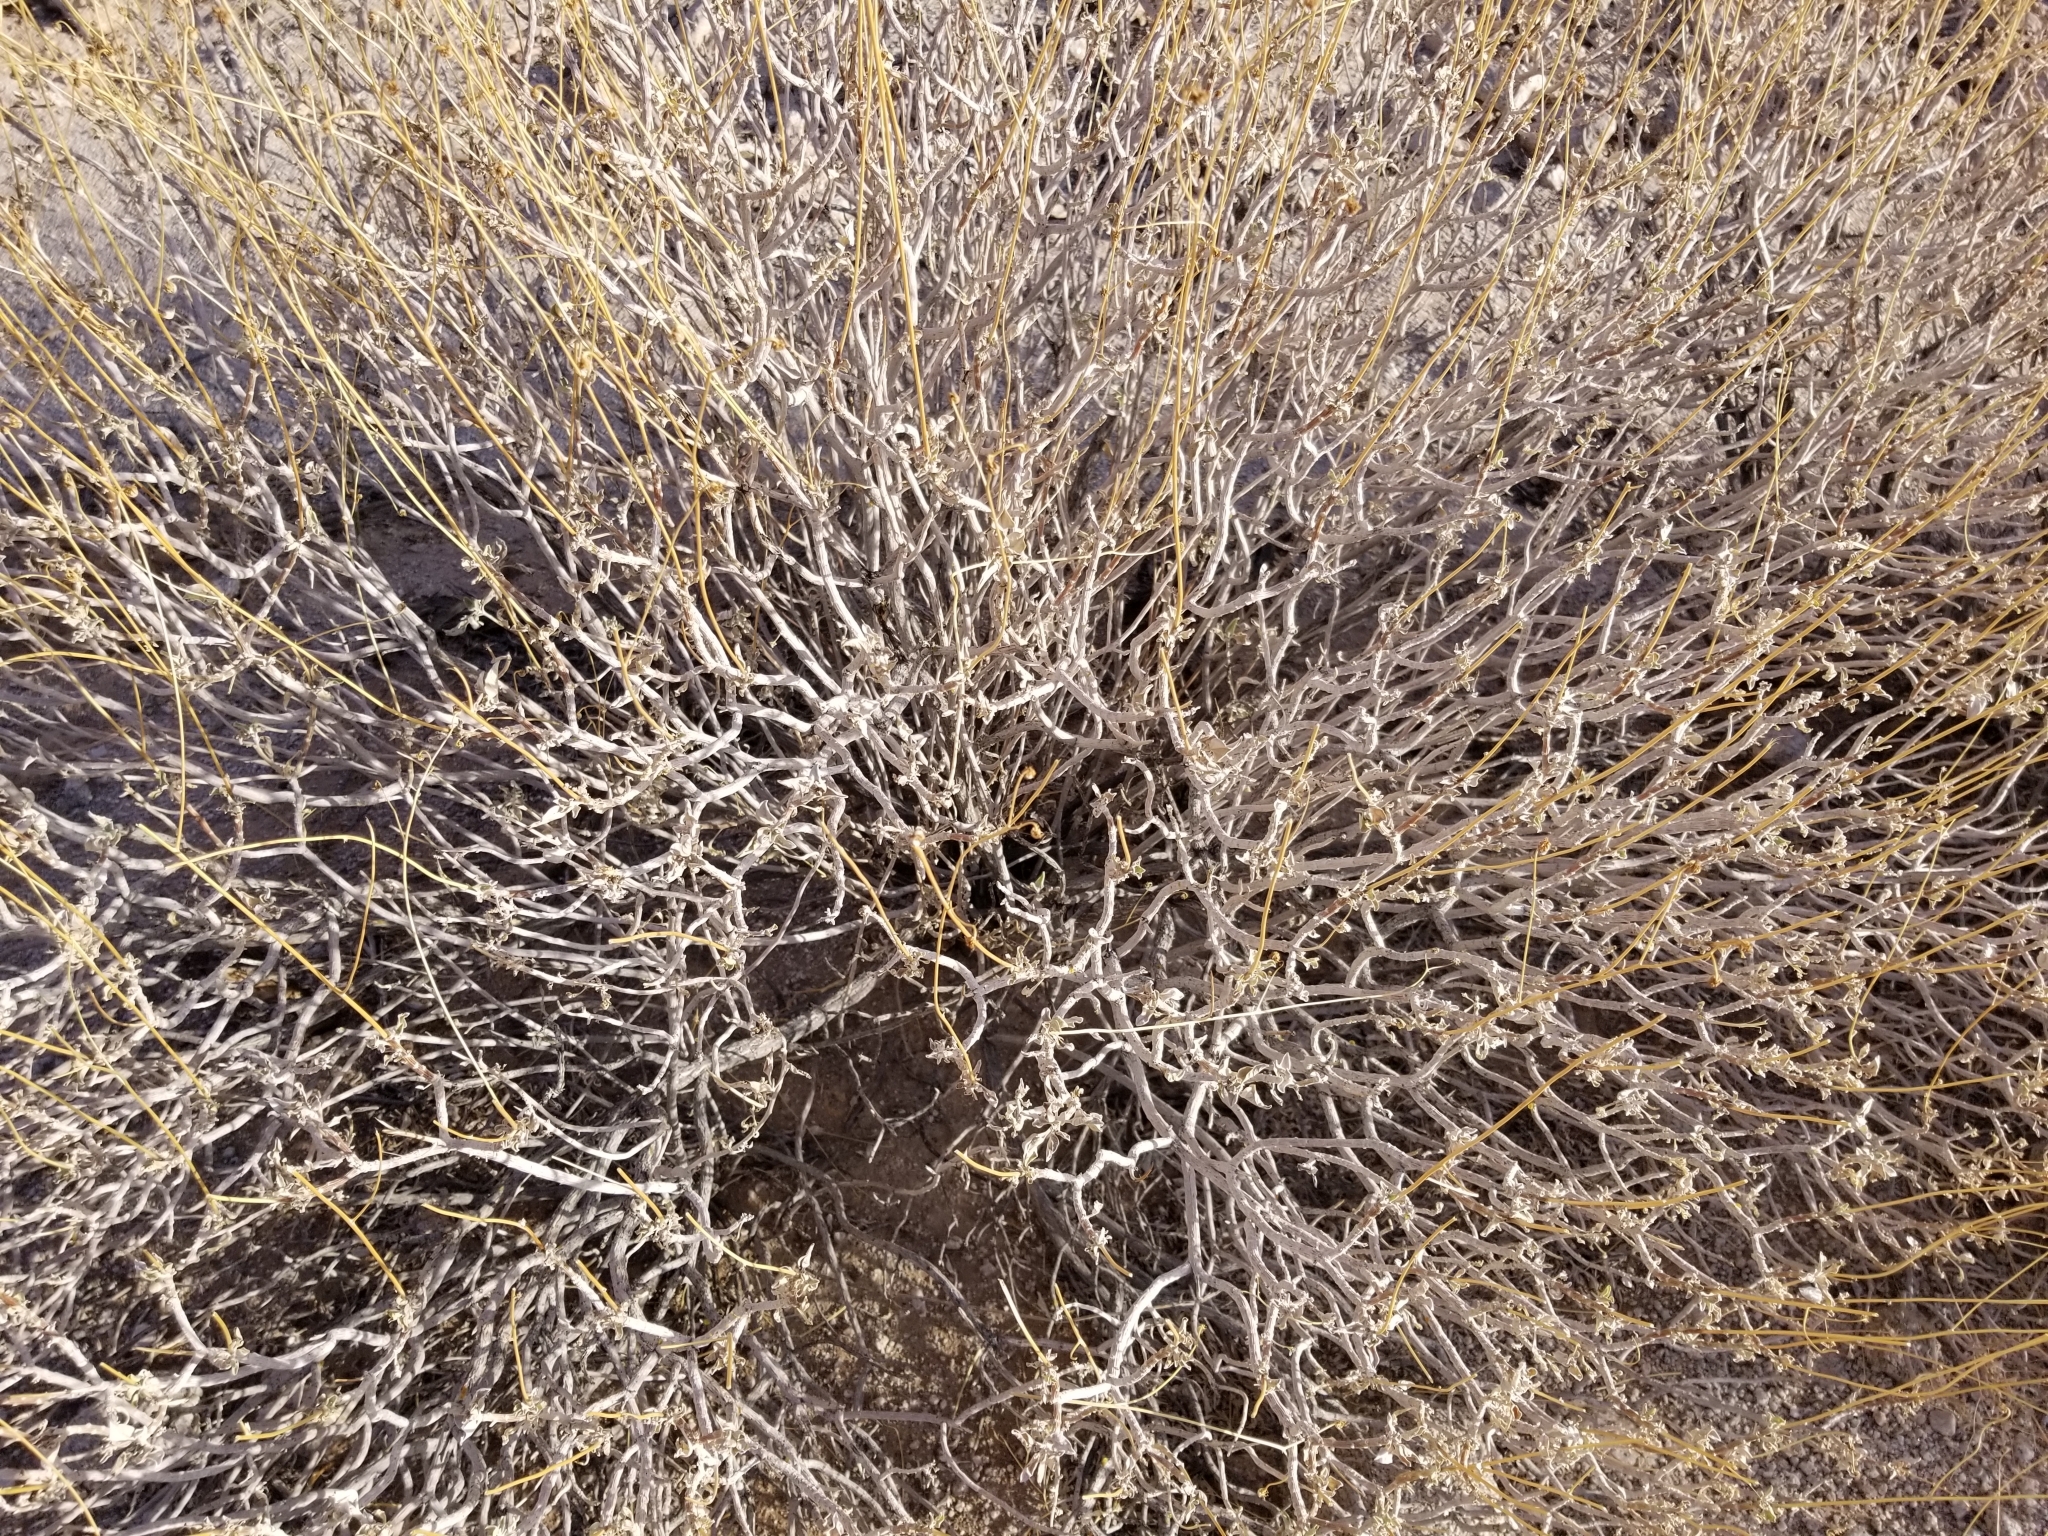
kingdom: Plantae
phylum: Tracheophyta
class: Magnoliopsida
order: Asterales
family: Asteraceae
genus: Encelia
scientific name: Encelia farinosa
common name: Brittlebush
